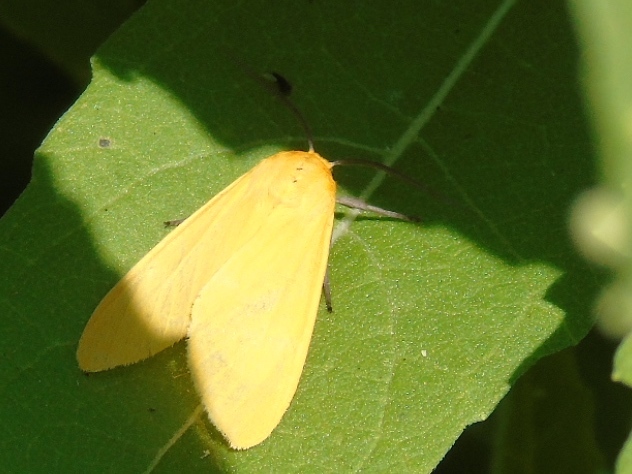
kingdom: Animalia
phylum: Arthropoda
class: Insecta
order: Lepidoptera
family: Erebidae
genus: Arctiinae
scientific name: Arctiinae
